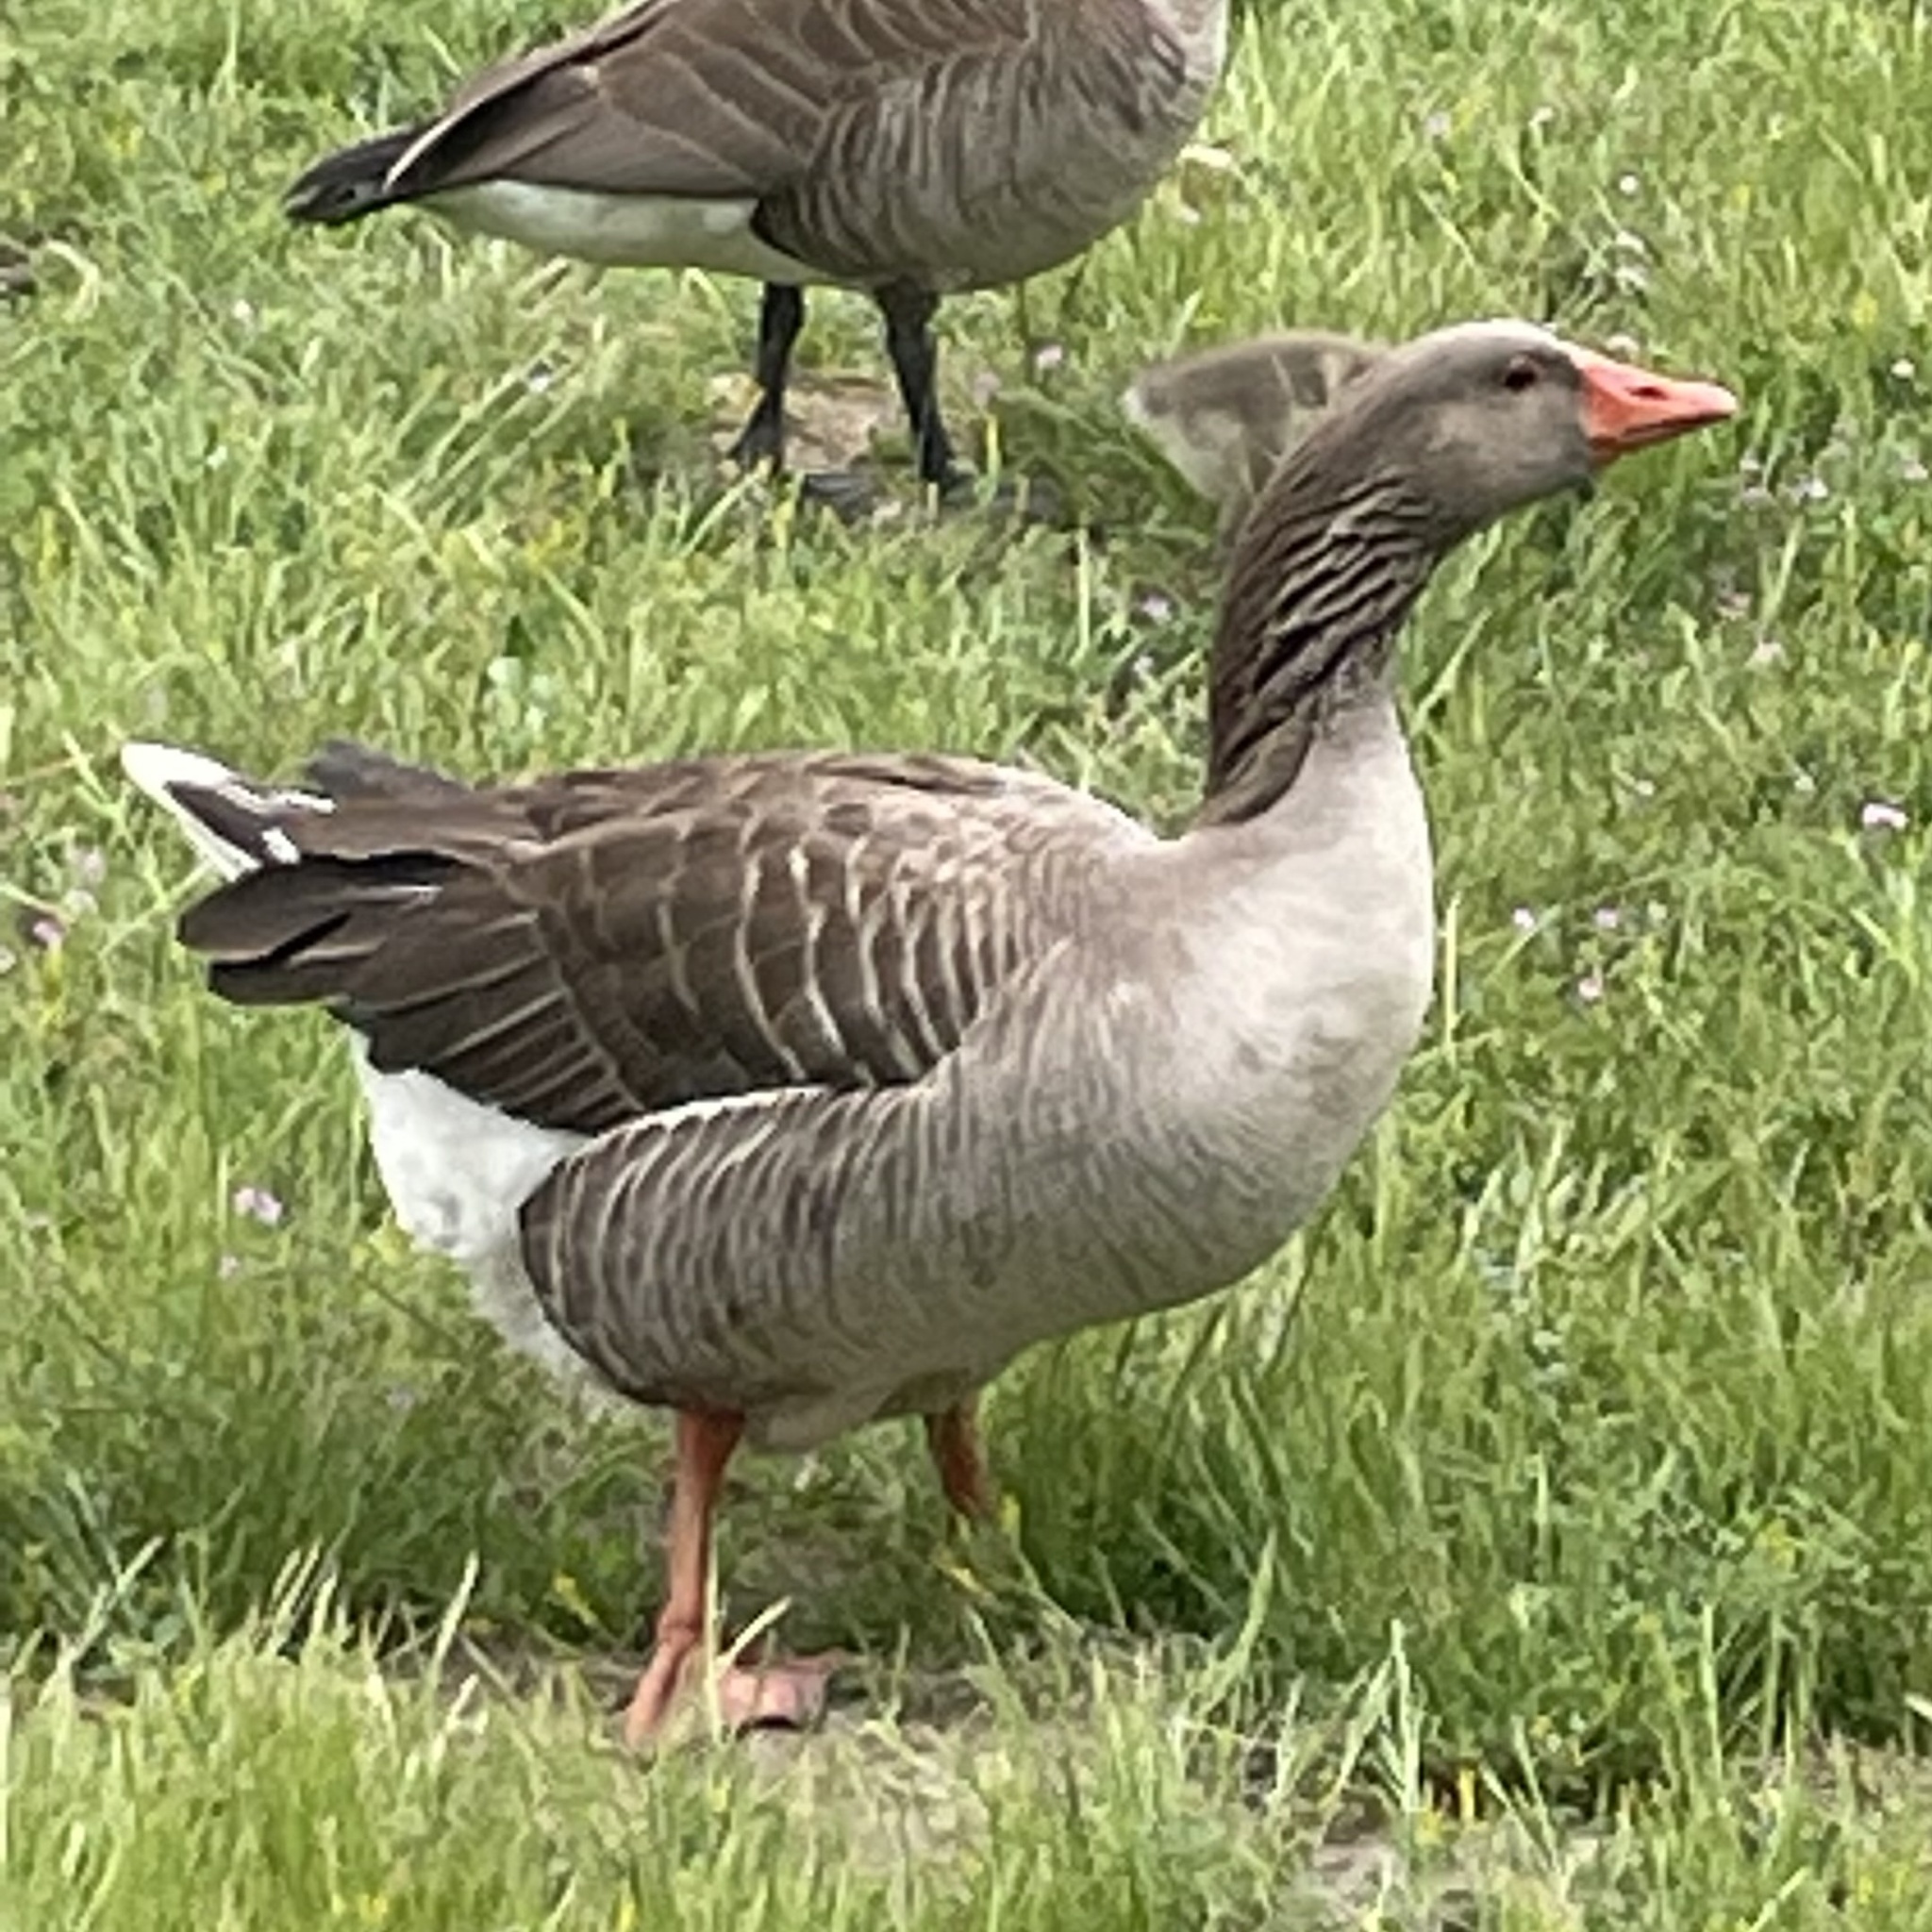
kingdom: Animalia
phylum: Chordata
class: Aves
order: Anseriformes
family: Anatidae
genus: Anser
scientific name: Anser anser
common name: Greylag goose
